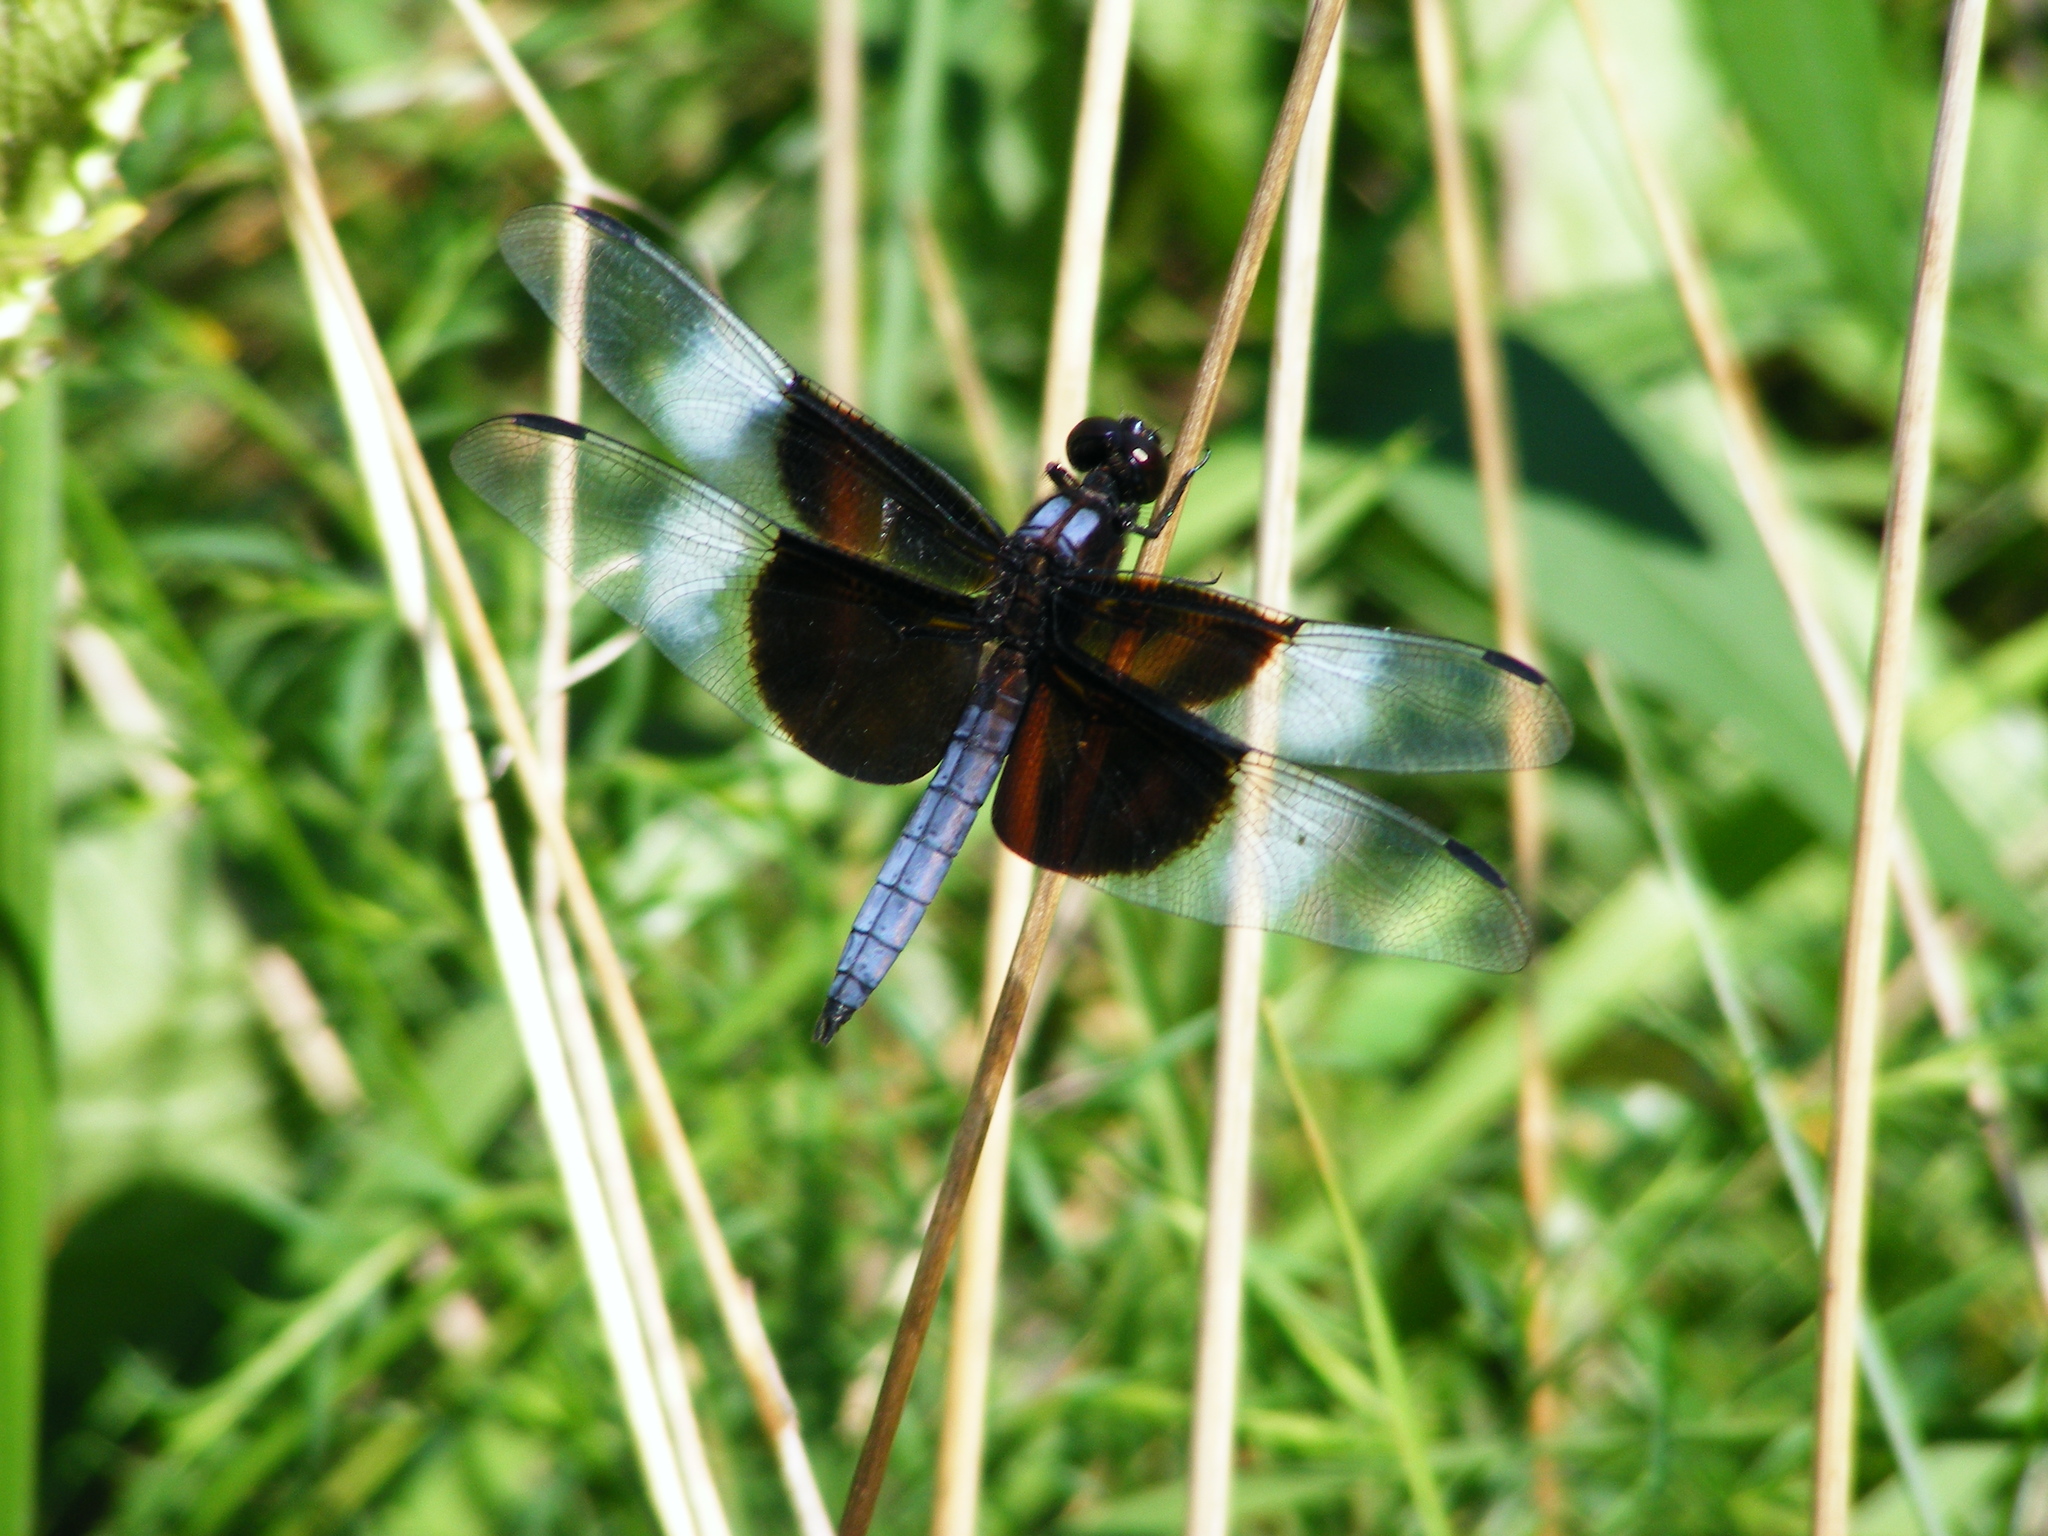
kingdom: Animalia
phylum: Arthropoda
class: Insecta
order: Odonata
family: Libellulidae
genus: Libellula
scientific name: Libellula luctuosa
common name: Widow skimmer
